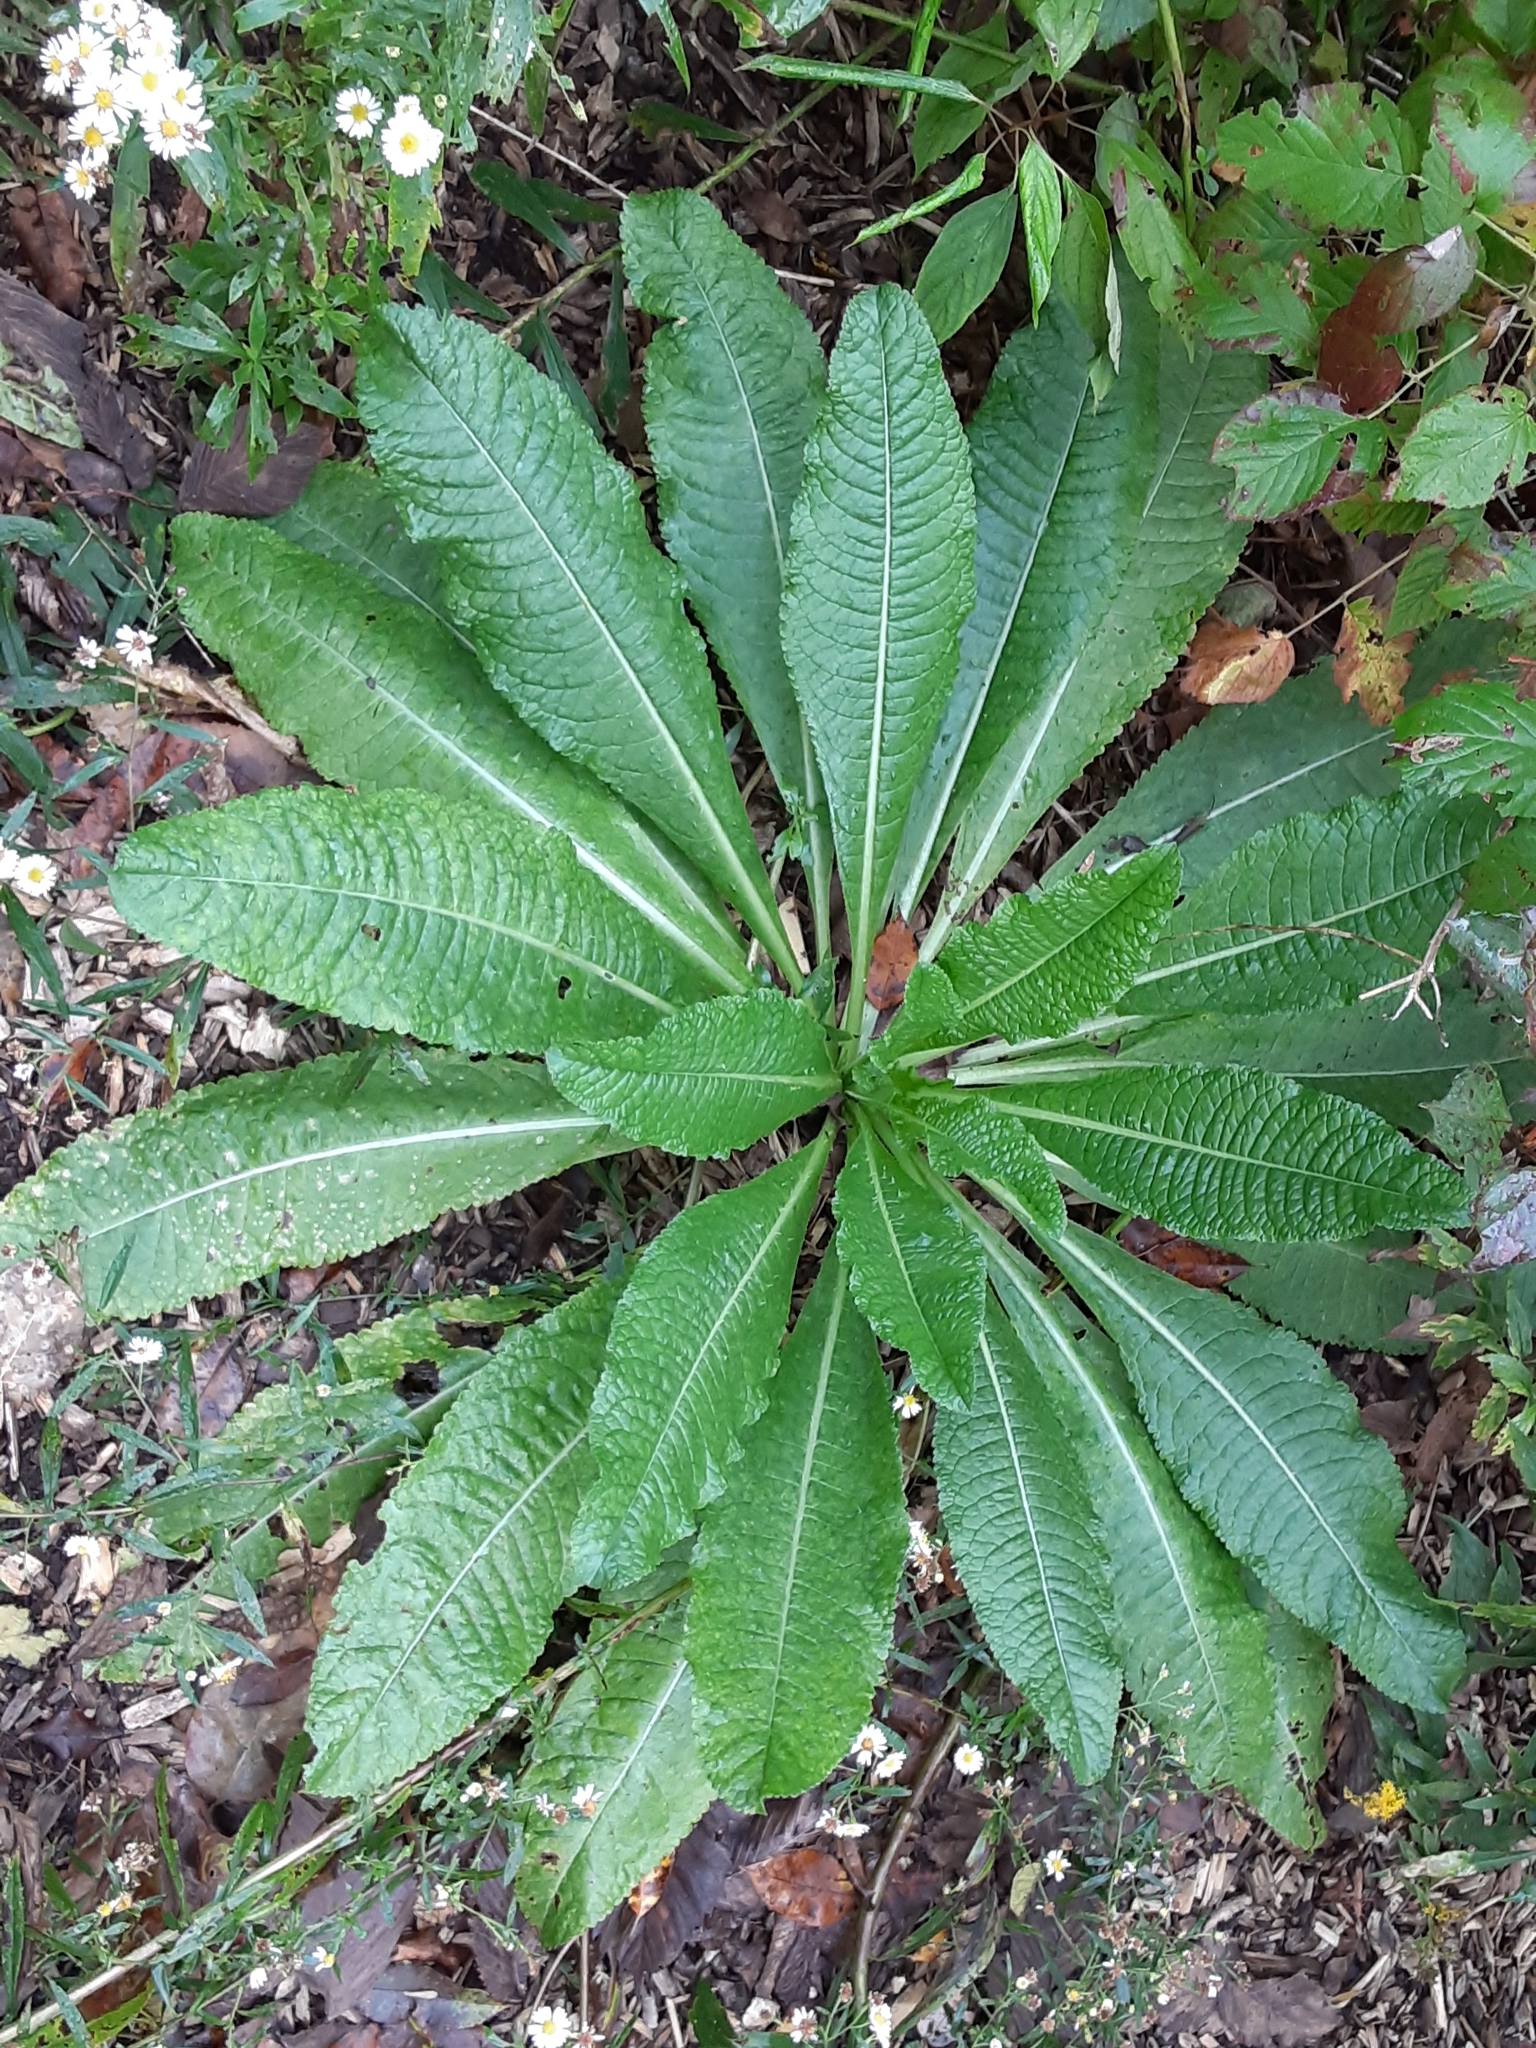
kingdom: Plantae
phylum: Tracheophyta
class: Magnoliopsida
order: Dipsacales
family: Caprifoliaceae
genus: Dipsacus
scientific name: Dipsacus fullonum
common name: Teasel
